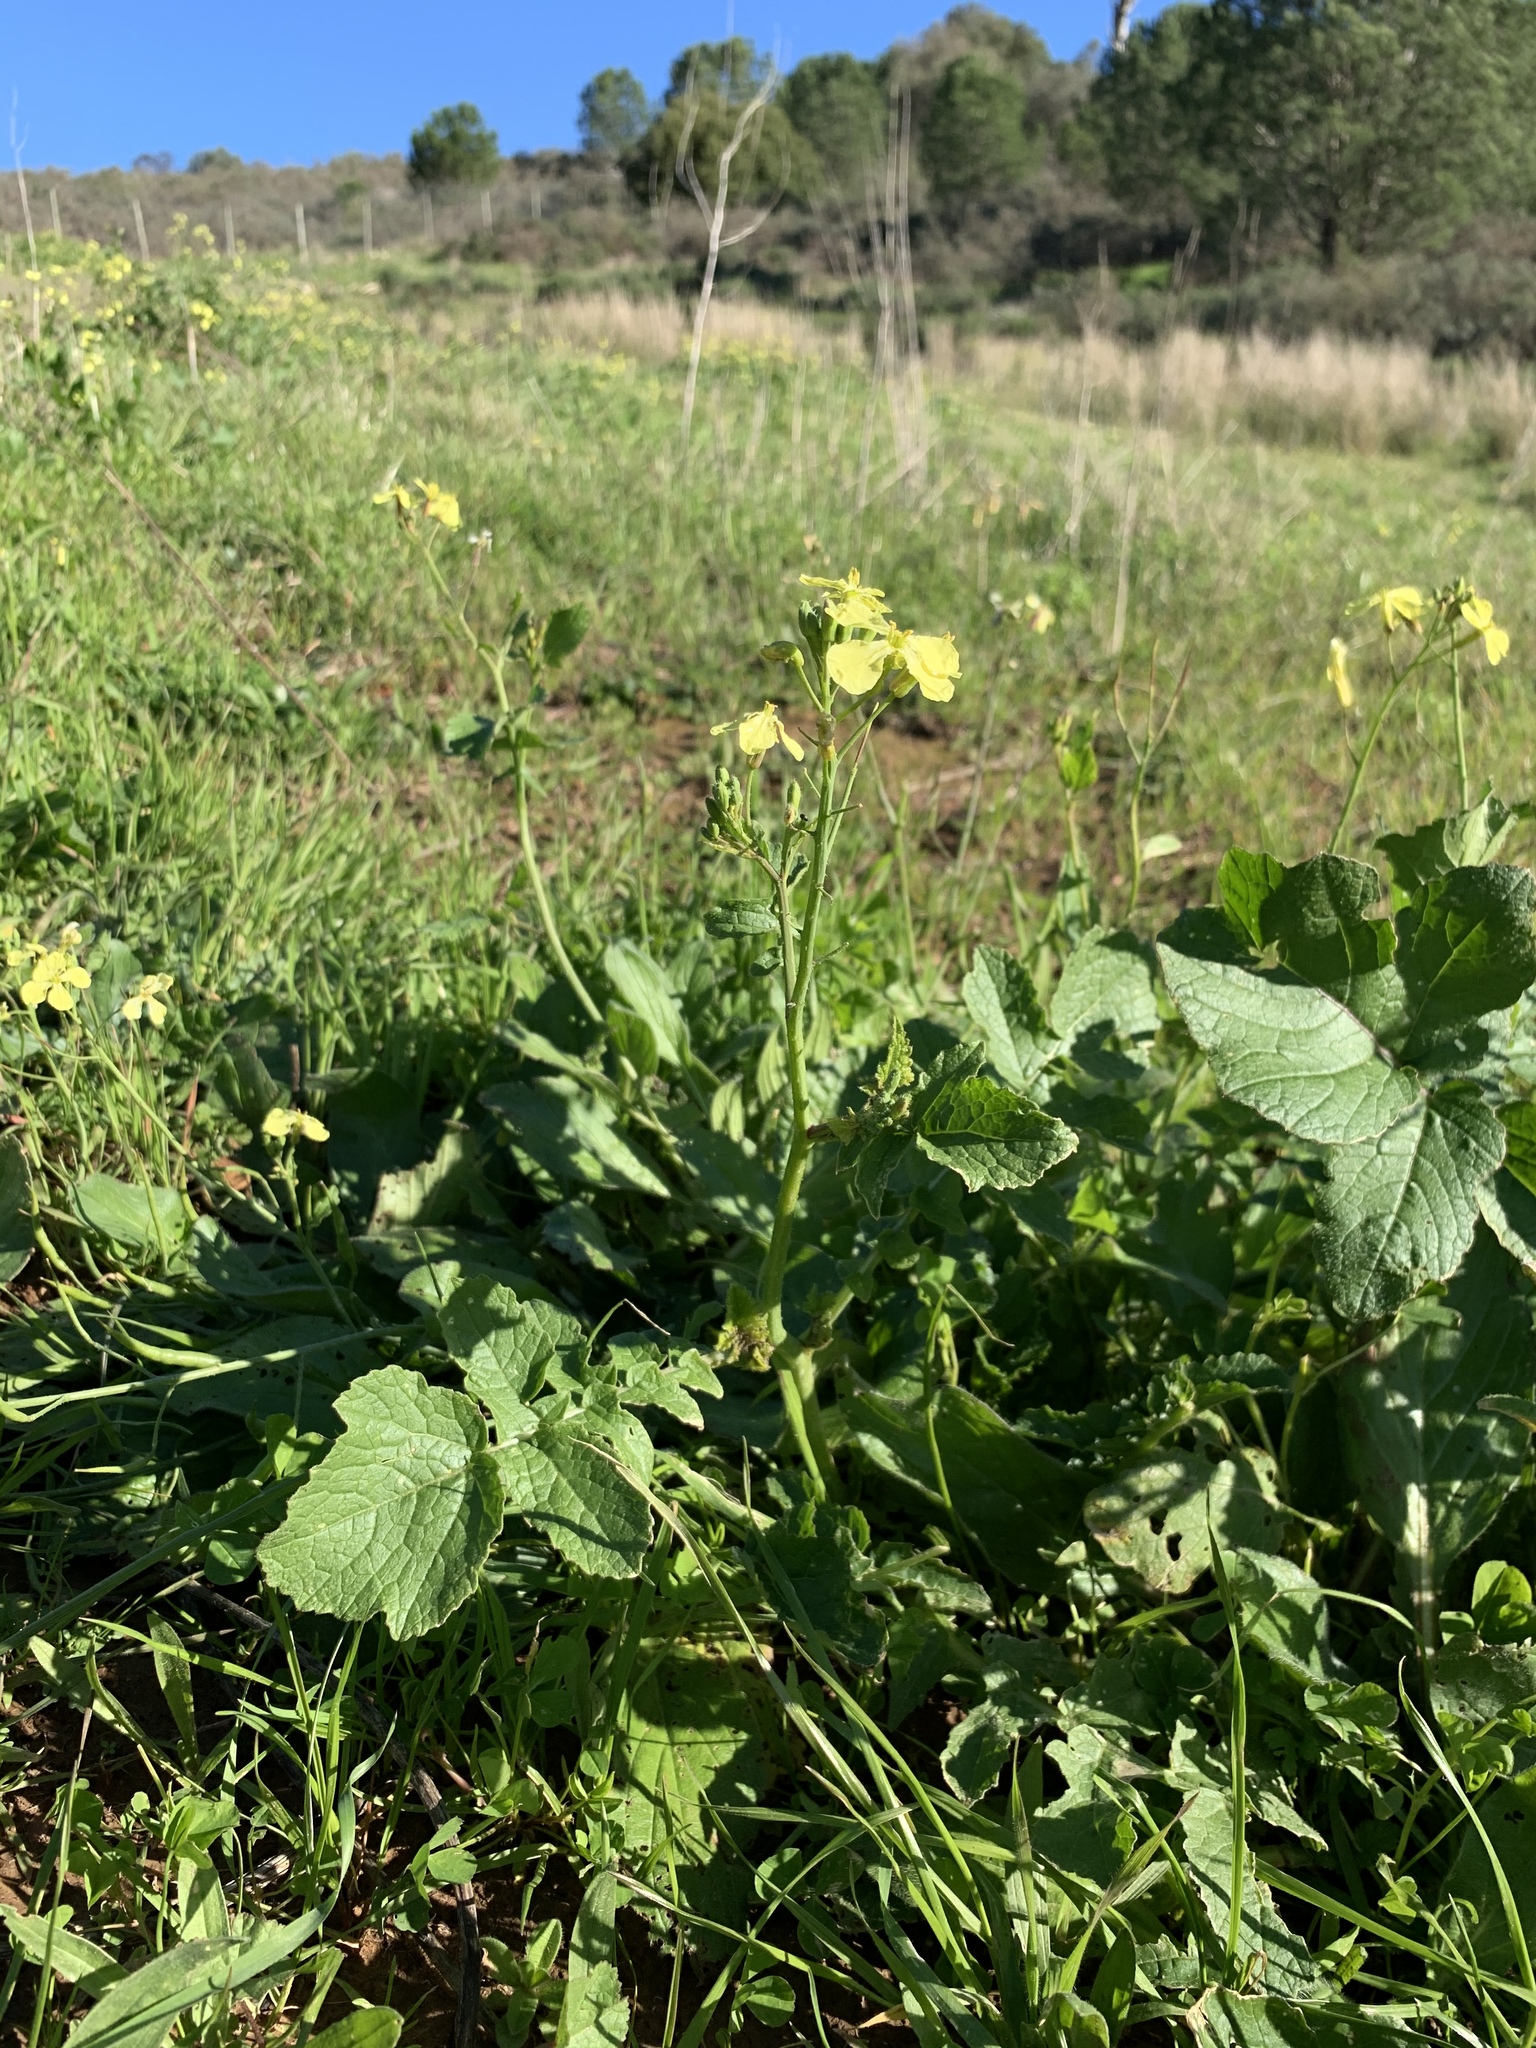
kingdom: Plantae
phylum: Tracheophyta
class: Magnoliopsida
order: Brassicales
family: Brassicaceae
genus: Raphanus
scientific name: Raphanus raphanistrum
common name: Wild radish
